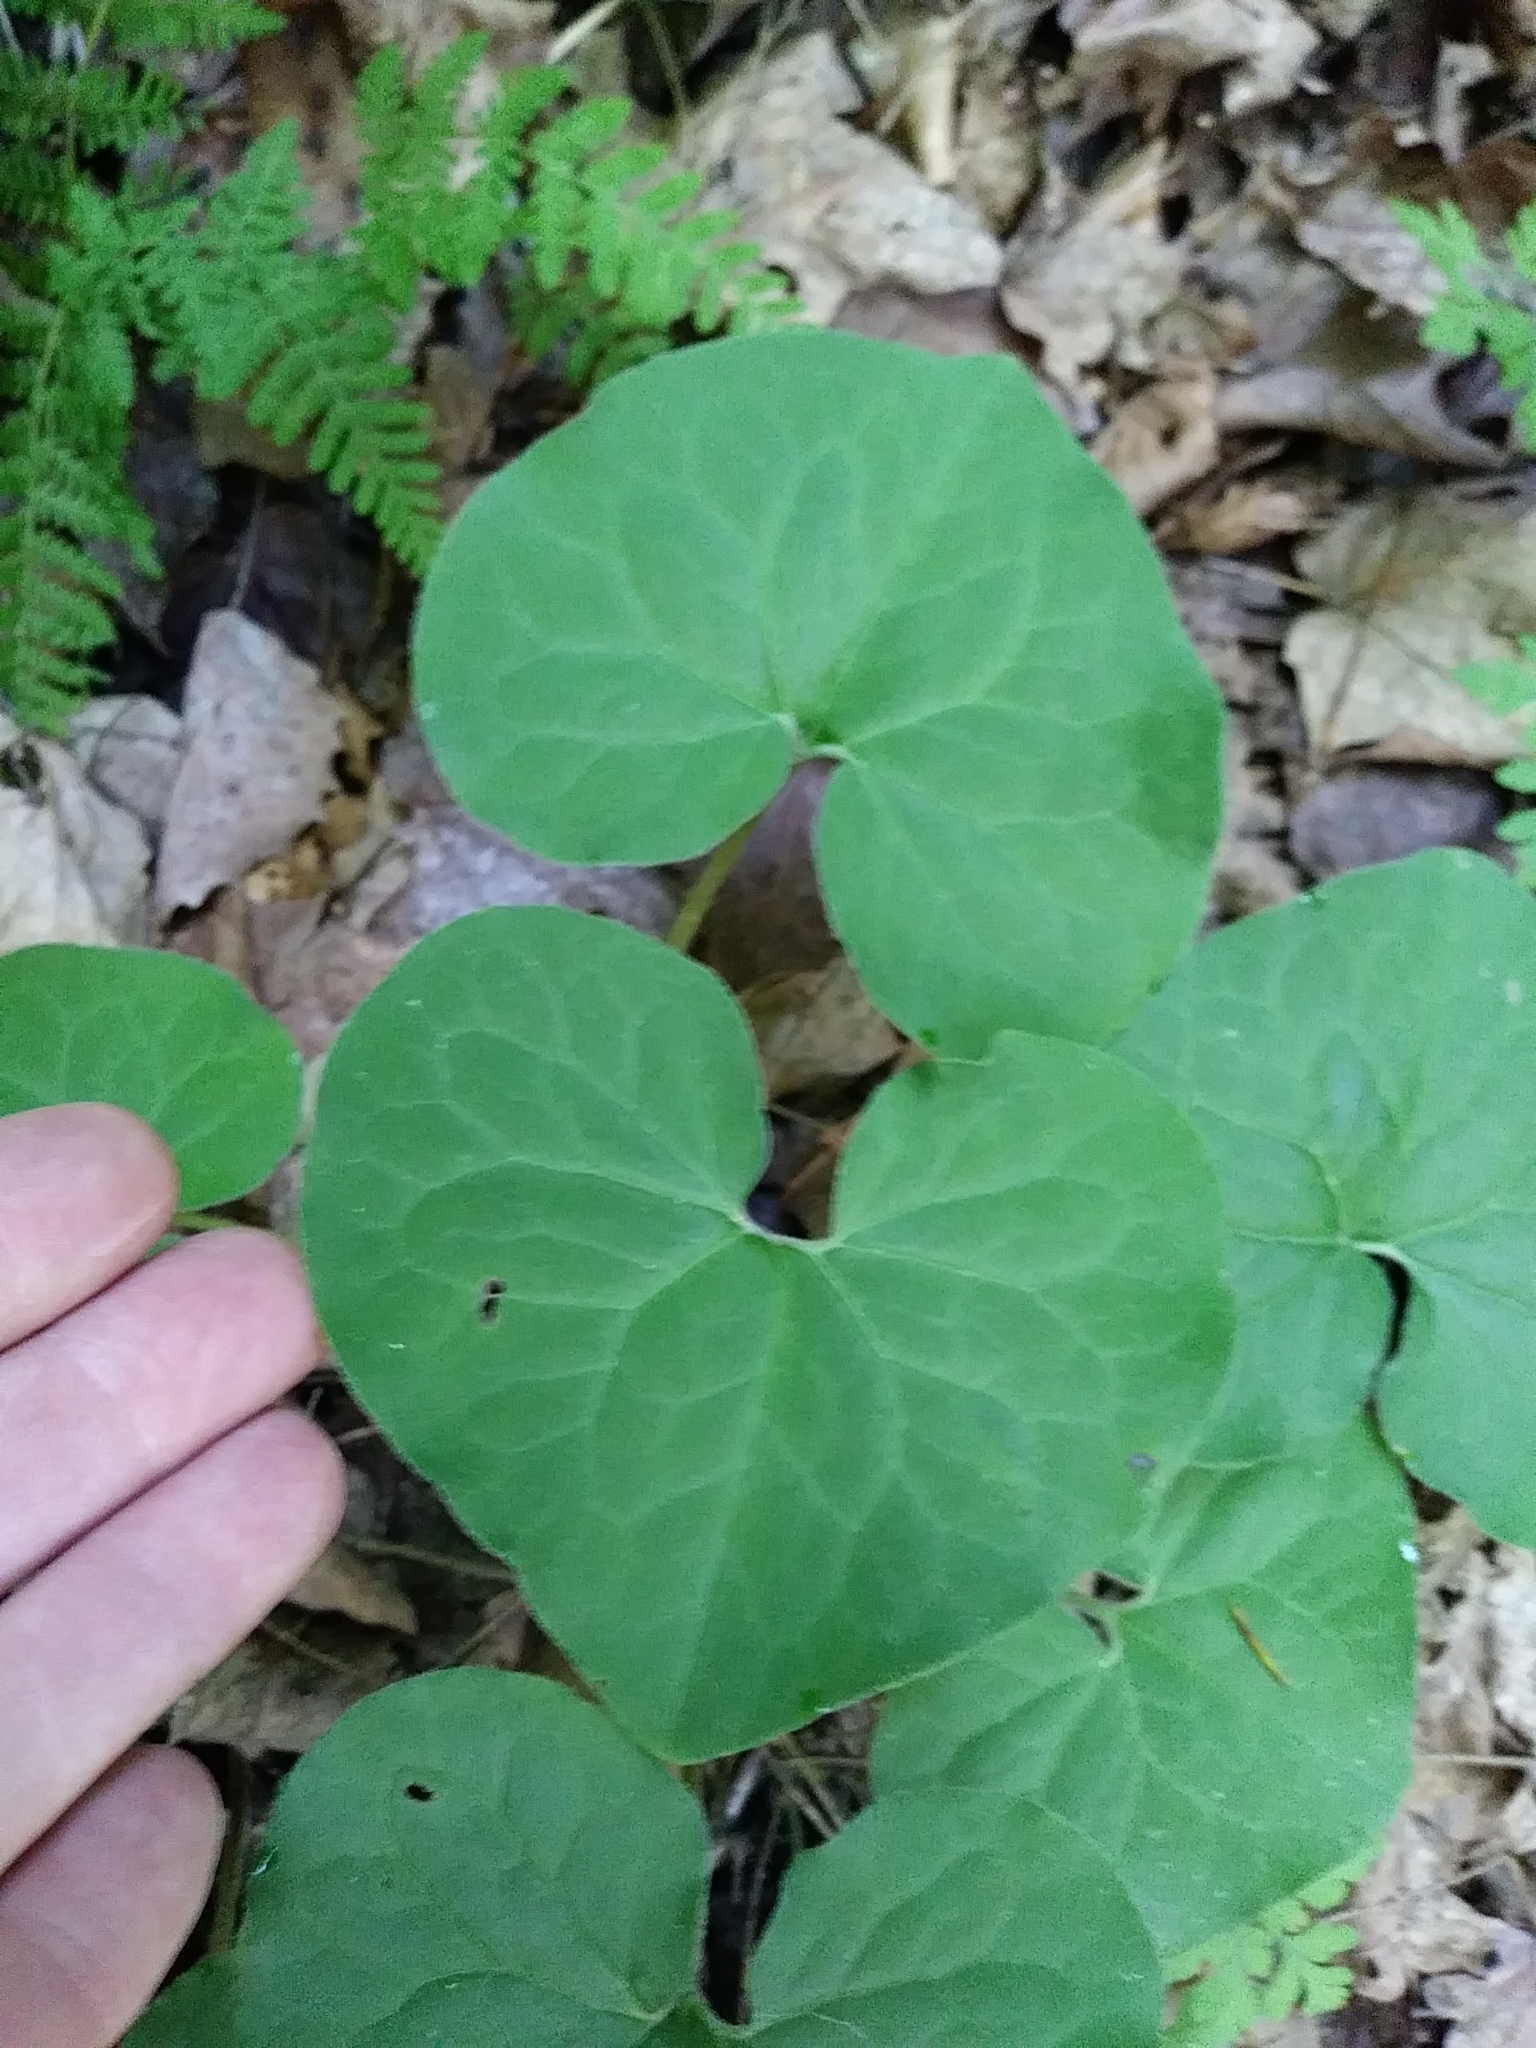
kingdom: Plantae
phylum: Tracheophyta
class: Magnoliopsida
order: Piperales
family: Aristolochiaceae
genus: Asarum
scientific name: Asarum canadense
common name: Wild ginger
